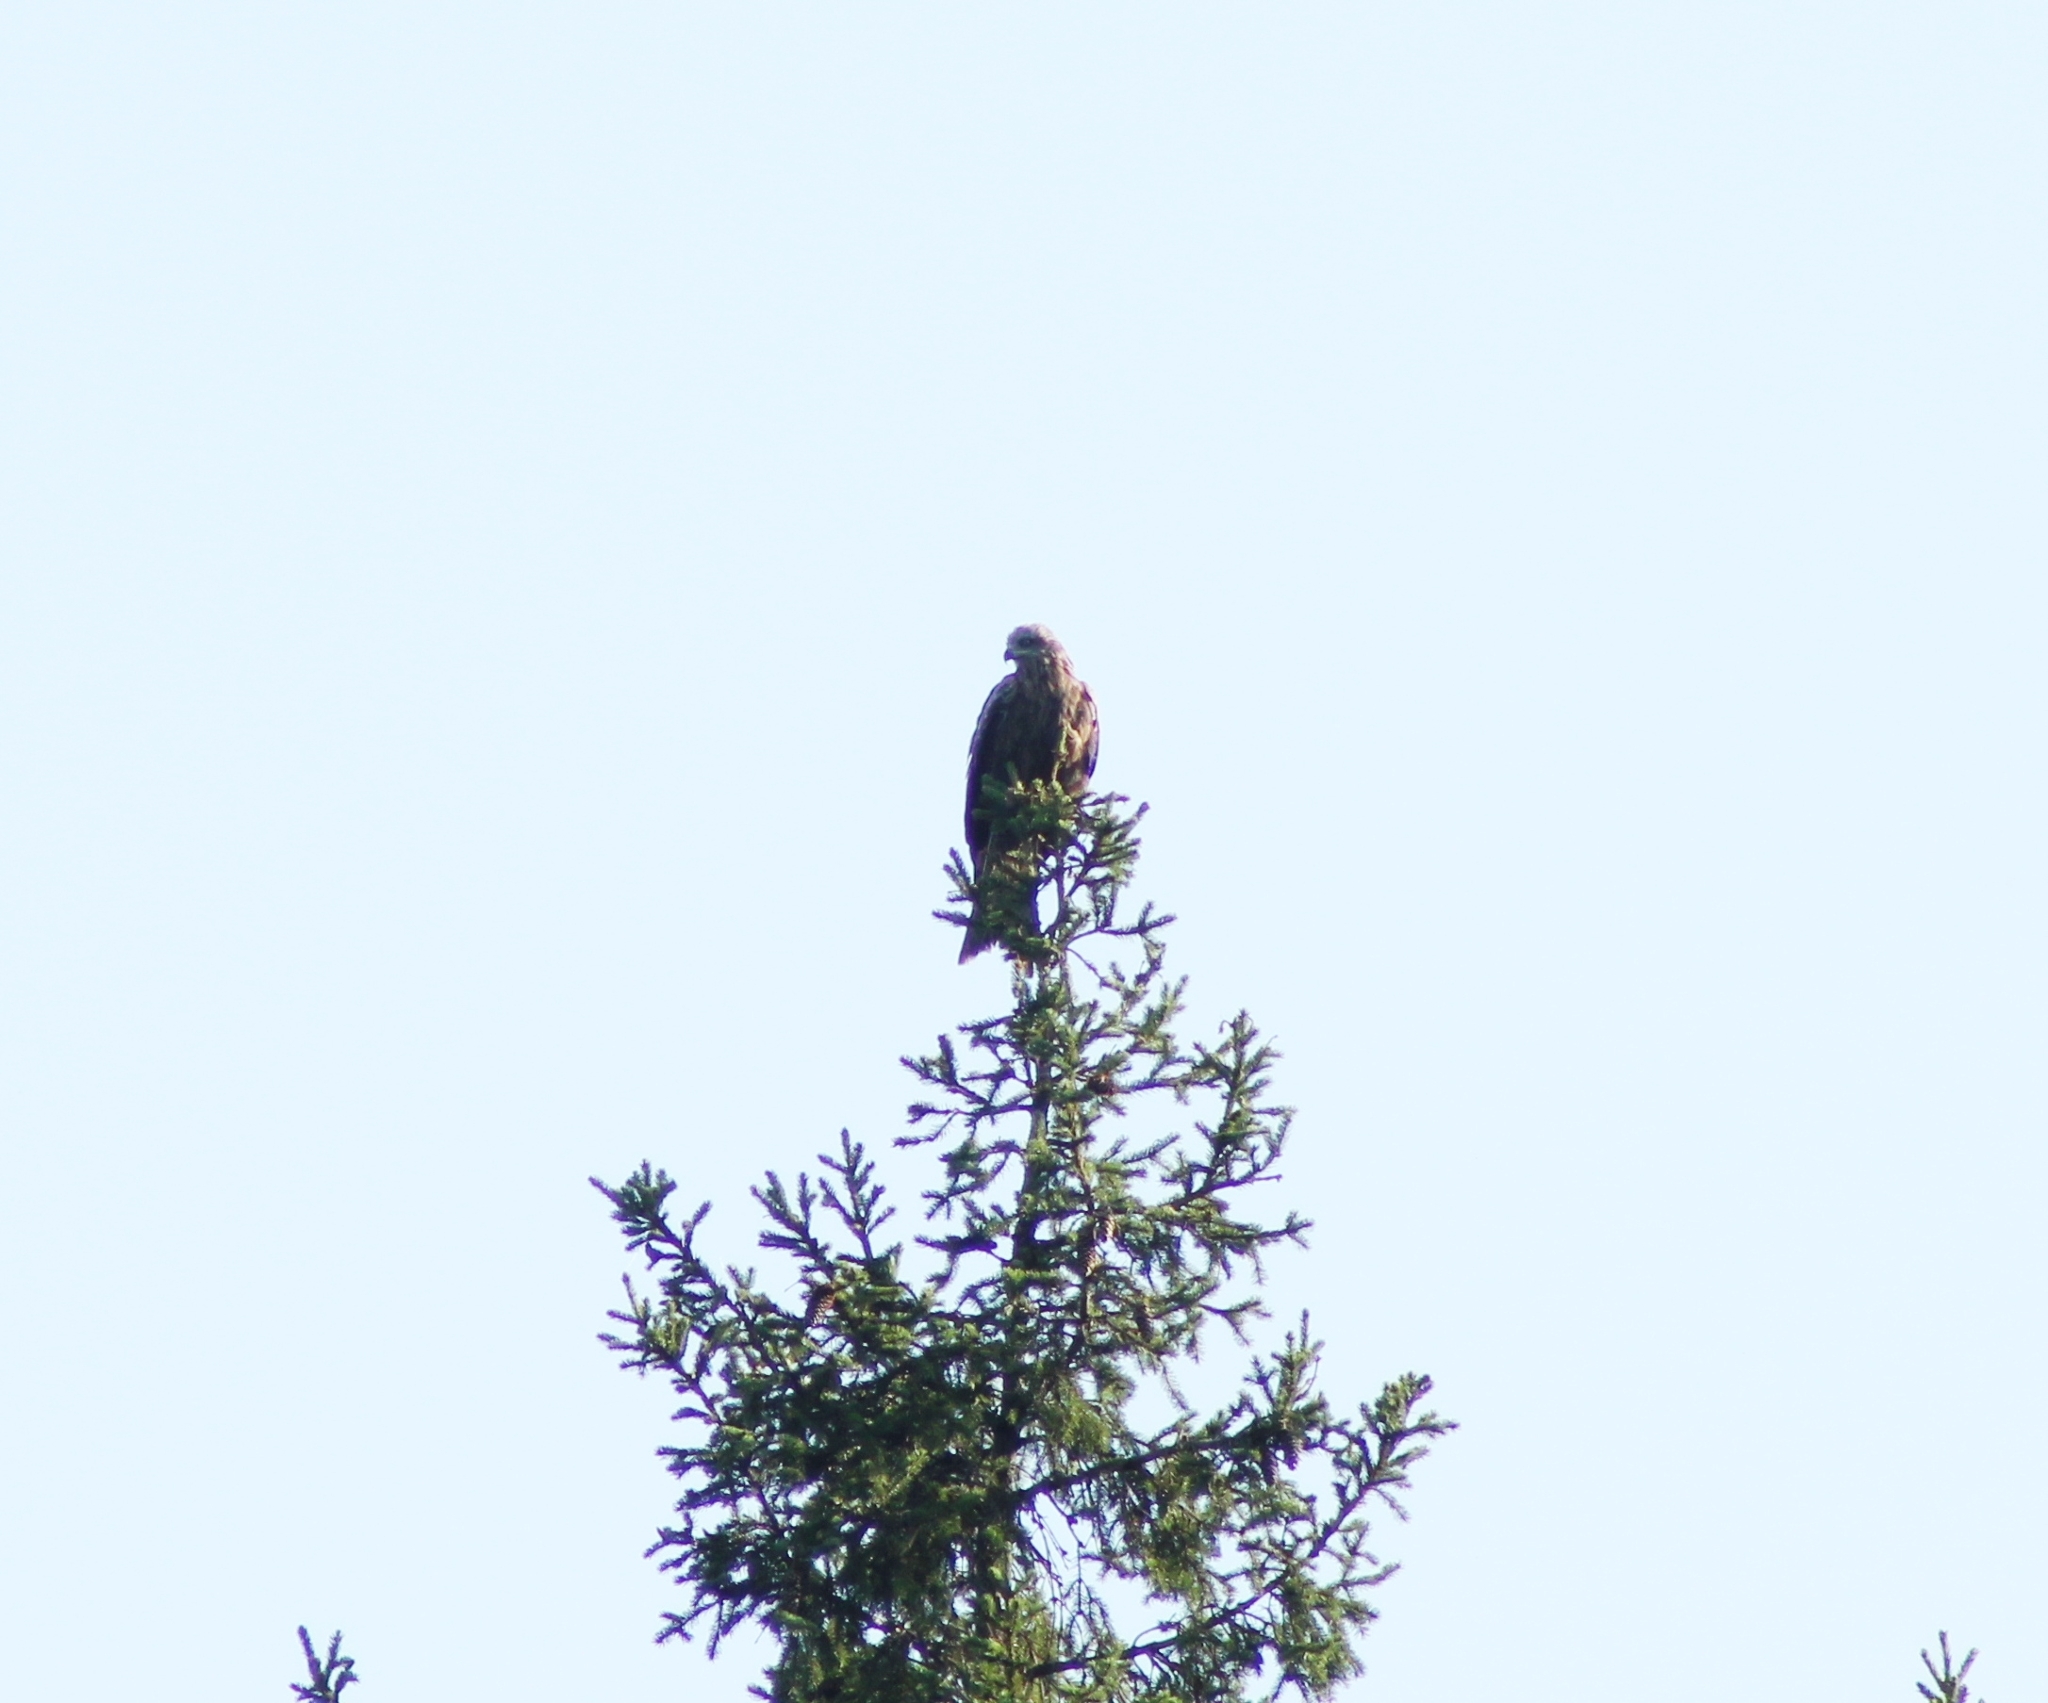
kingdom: Animalia
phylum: Chordata
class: Aves
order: Accipitriformes
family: Accipitridae
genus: Milvus
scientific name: Milvus migrans
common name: Black kite
